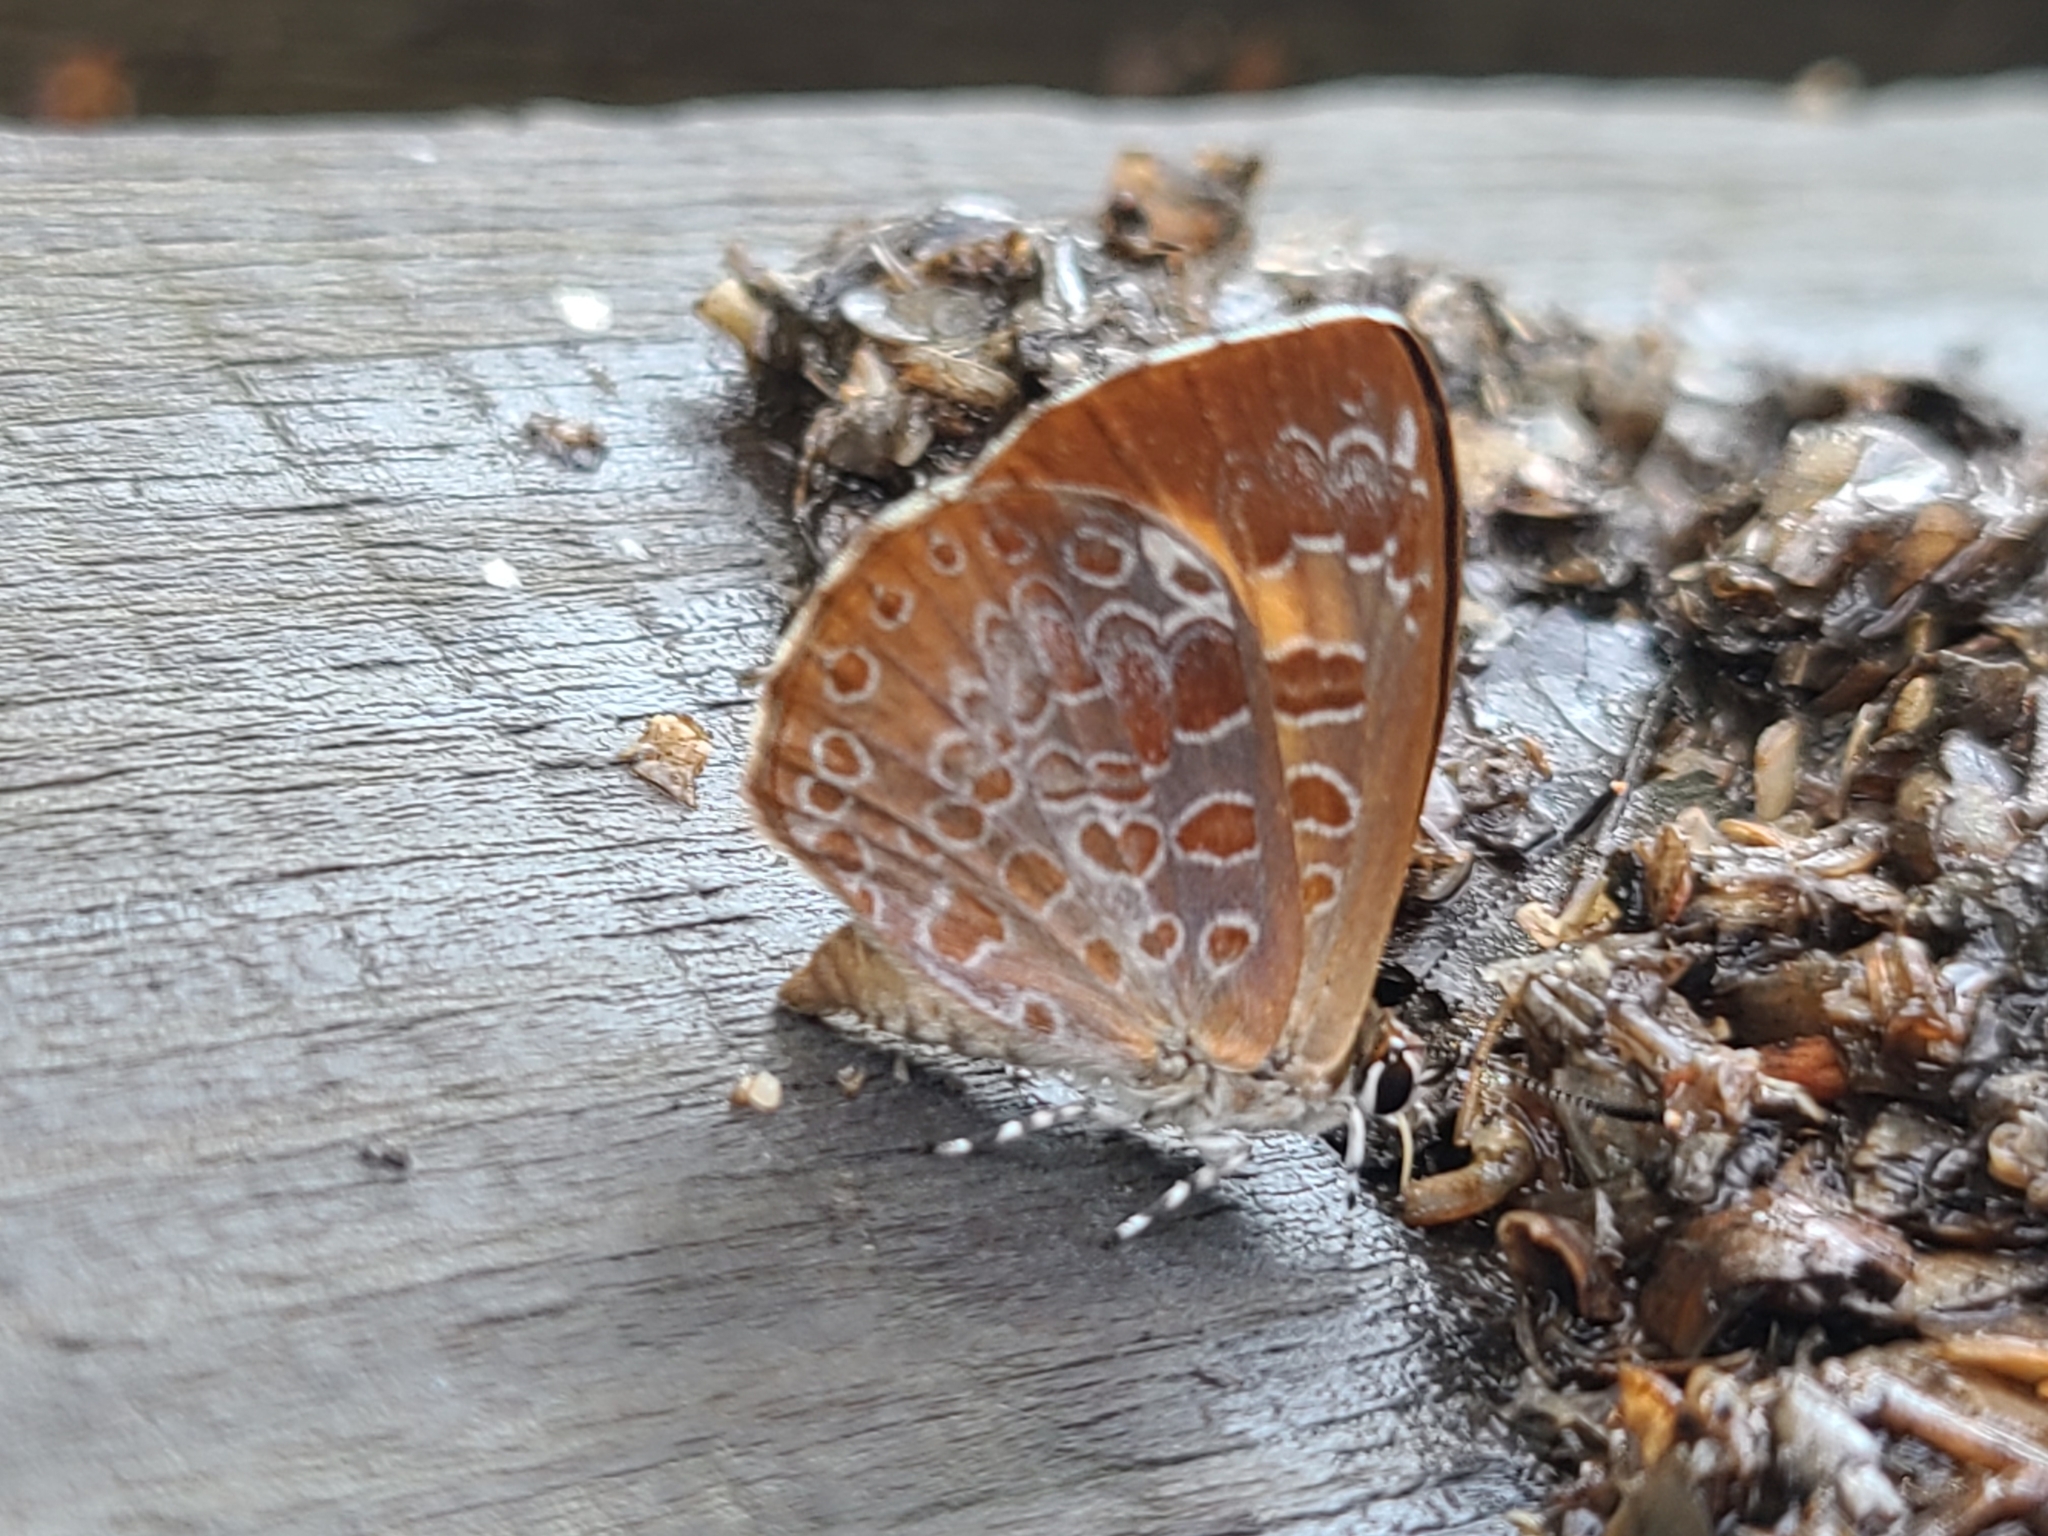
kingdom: Animalia
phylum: Arthropoda
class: Insecta
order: Lepidoptera
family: Lycaenidae
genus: Feniseca
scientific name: Feniseca tarquinius
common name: Harvester
